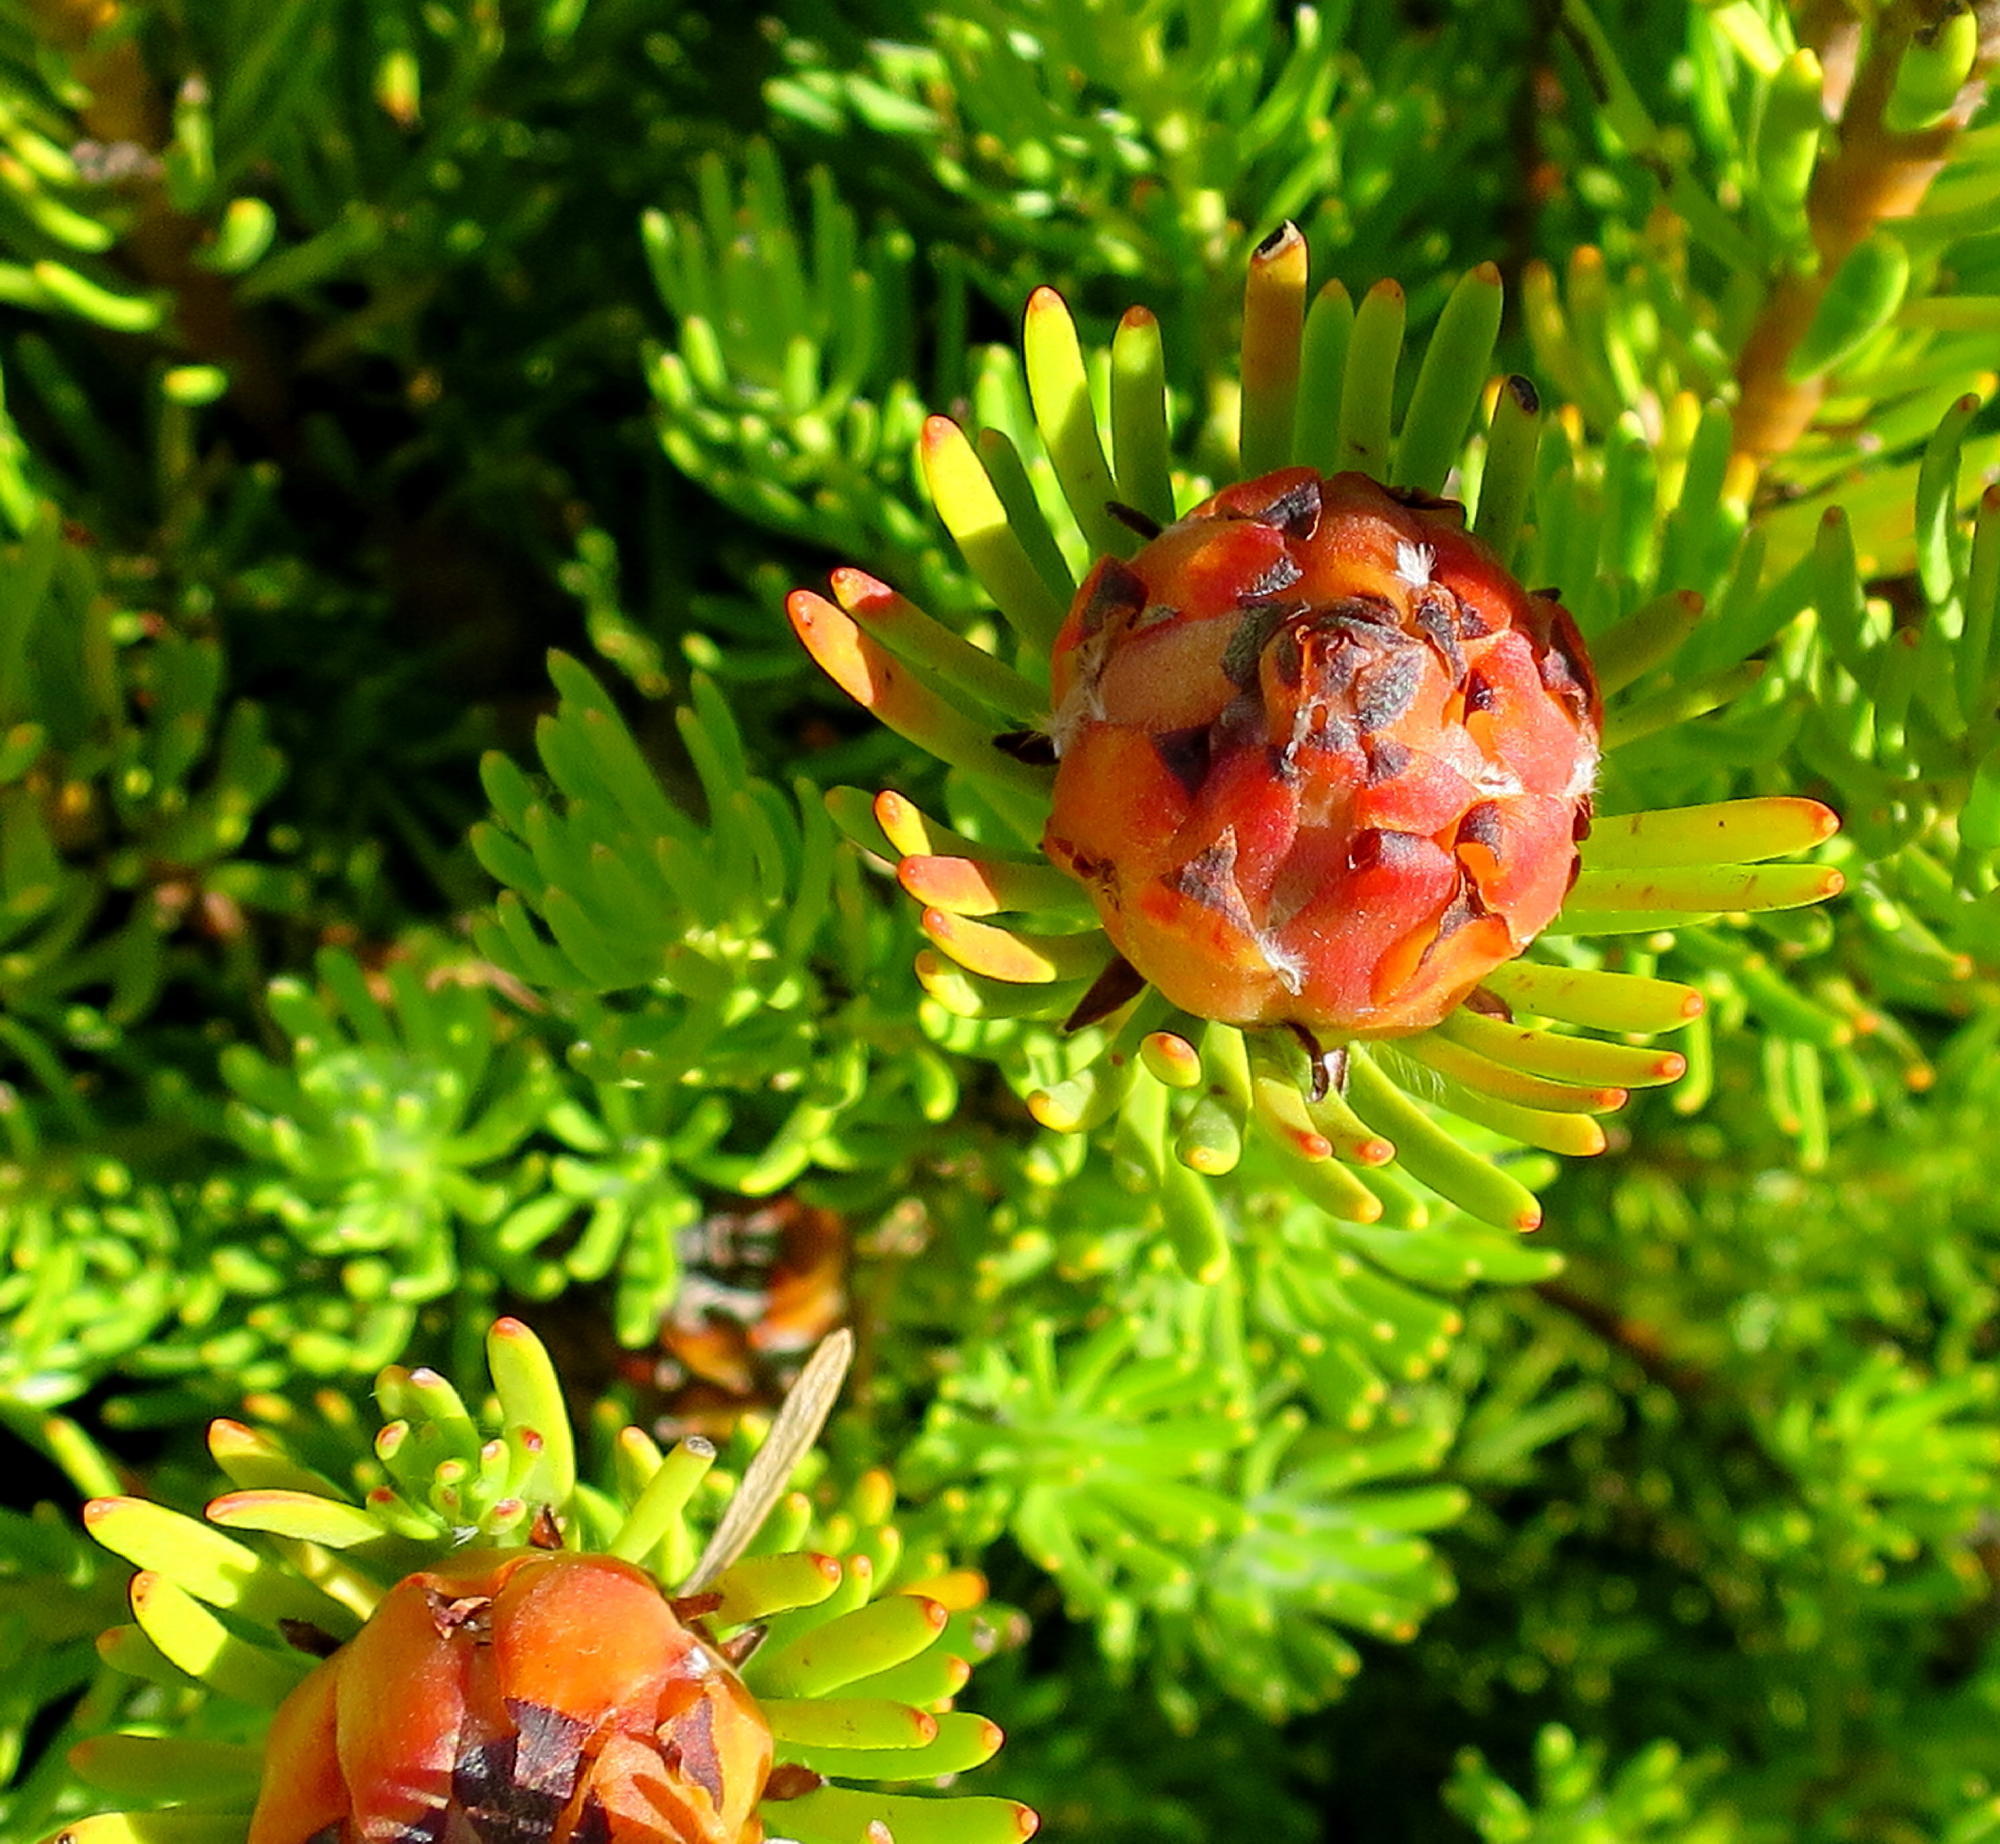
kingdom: Plantae
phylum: Tracheophyta
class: Magnoliopsida
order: Proteales
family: Proteaceae
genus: Leucadendron
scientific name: Leucadendron dregei
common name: Summit conebush
